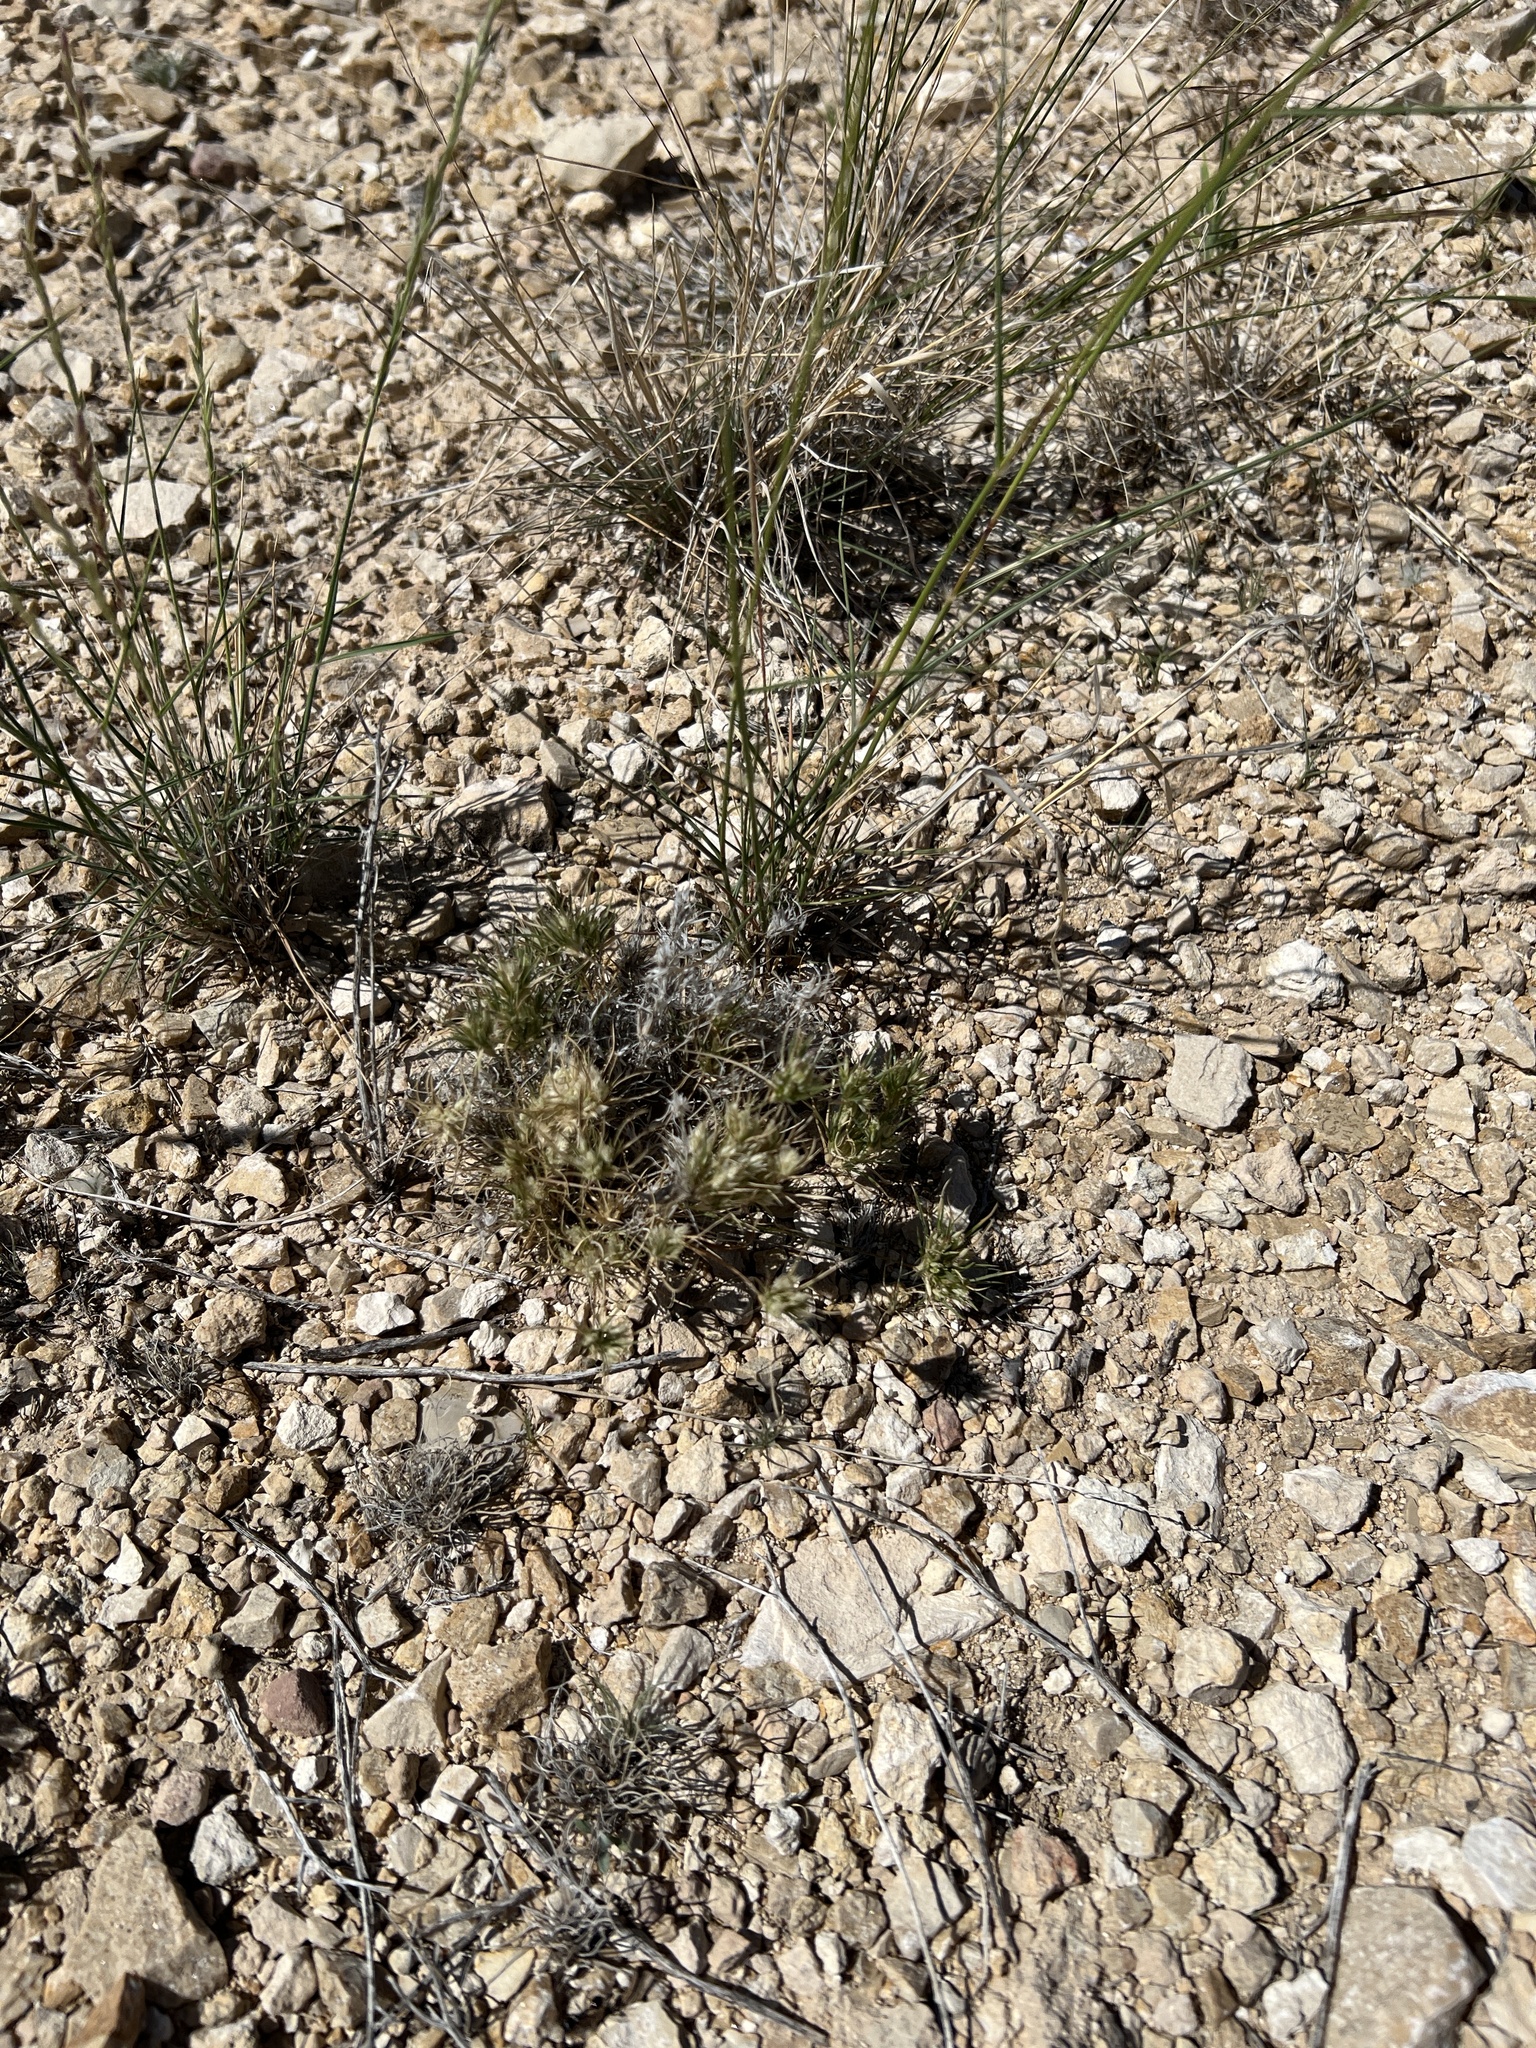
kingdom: Plantae
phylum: Tracheophyta
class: Liliopsida
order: Poales
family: Poaceae
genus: Dasyochloa
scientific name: Dasyochloa pulchella
